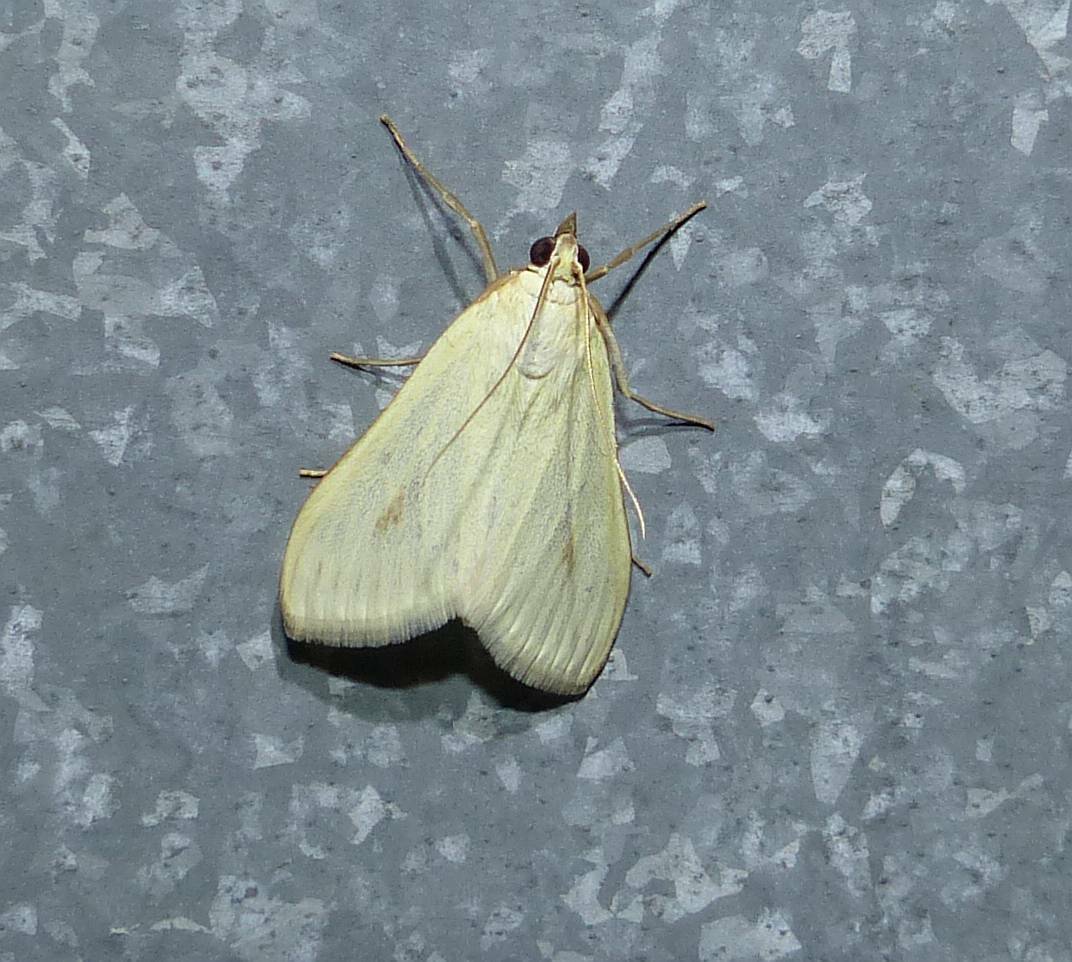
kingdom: Animalia
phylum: Arthropoda
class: Insecta
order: Lepidoptera
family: Crambidae
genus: Sitochroa
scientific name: Sitochroa palealis
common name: Greenish-yellow sitochroa moth
